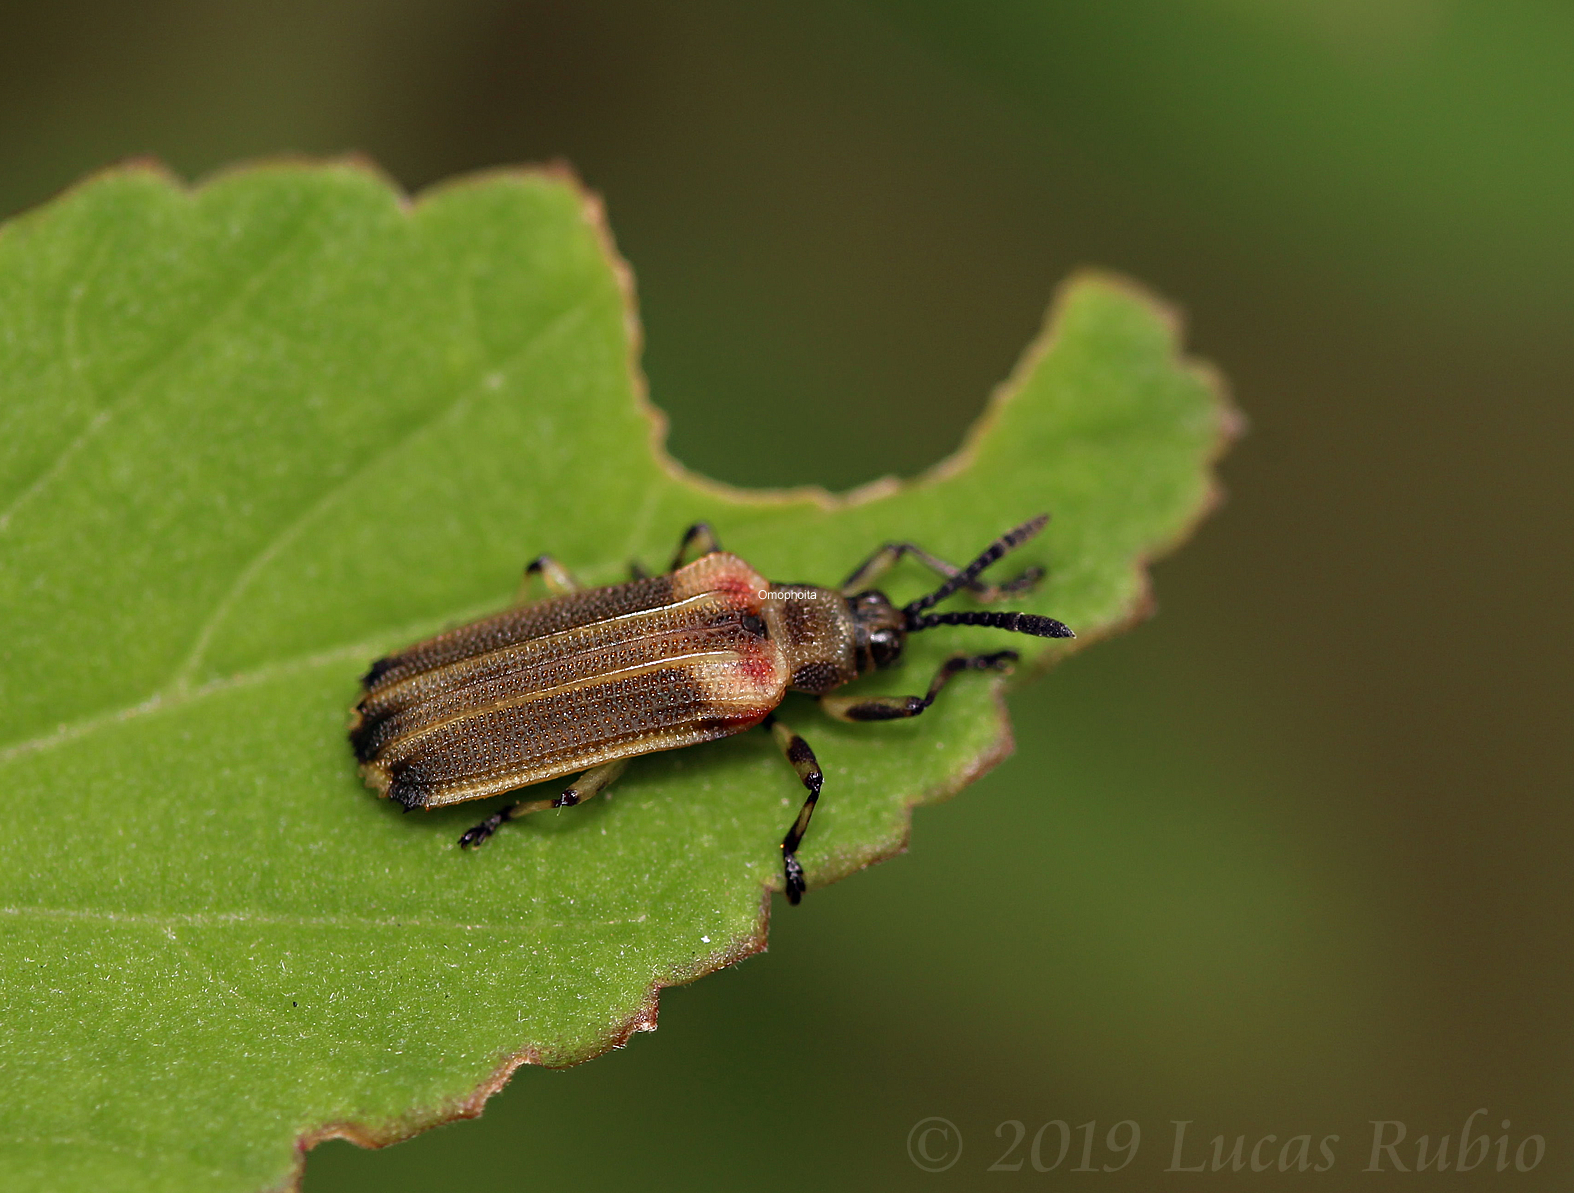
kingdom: Animalia
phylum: Arthropoda
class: Insecta
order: Coleoptera
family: Chrysomelidae
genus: Heterispa
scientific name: Heterispa costipennis
